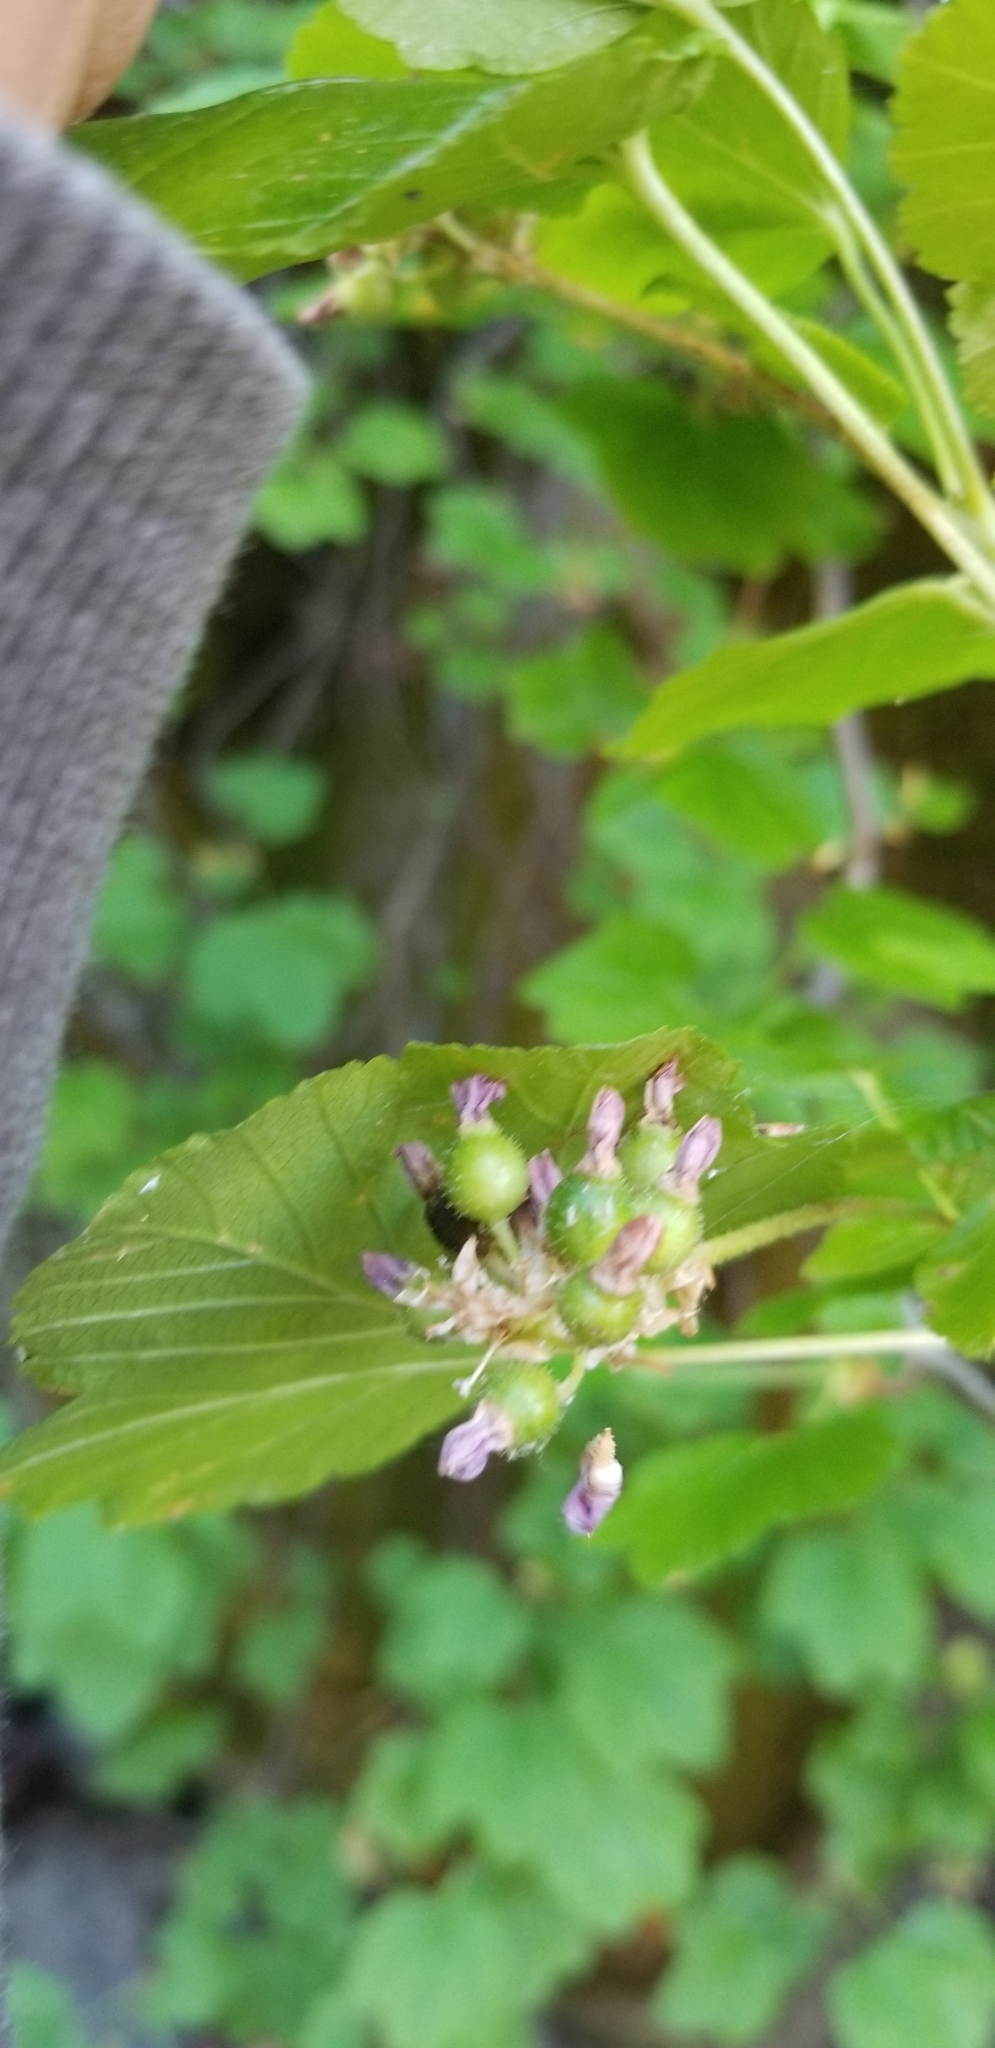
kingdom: Plantae
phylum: Tracheophyta
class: Magnoliopsida
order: Saxifragales
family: Grossulariaceae
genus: Ribes
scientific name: Ribes nevadense
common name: Mountain pink currant
